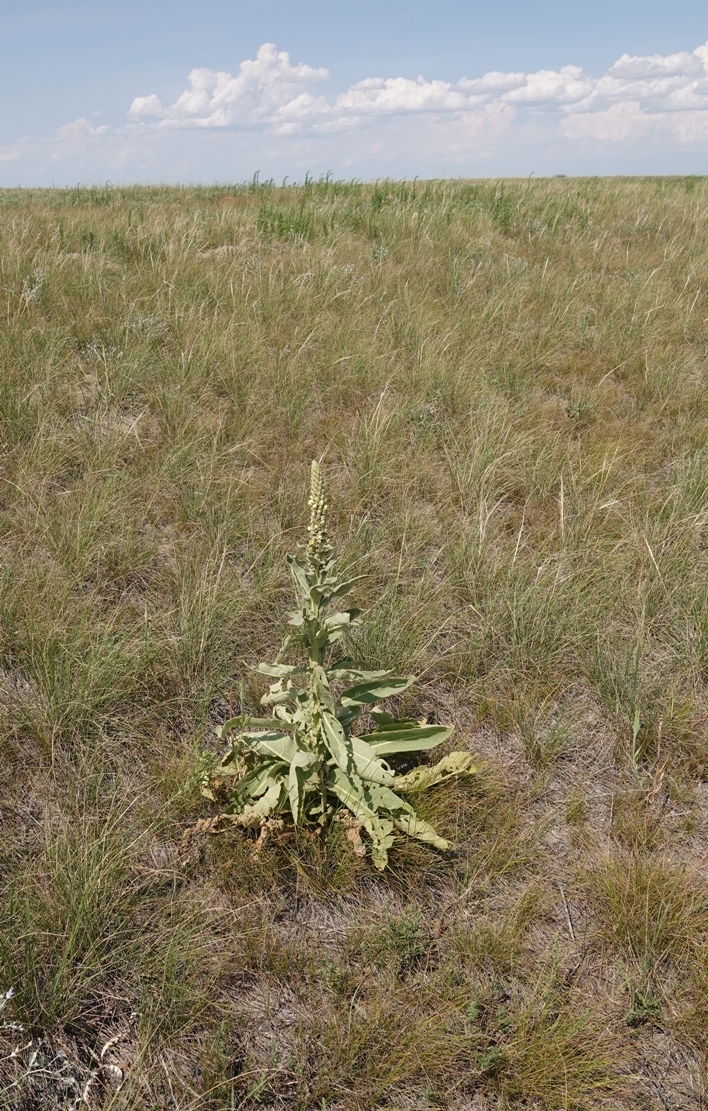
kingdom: Plantae
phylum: Tracheophyta
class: Magnoliopsida
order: Lamiales
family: Scrophulariaceae
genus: Verbascum
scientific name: Verbascum thapsus
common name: Common mullein
